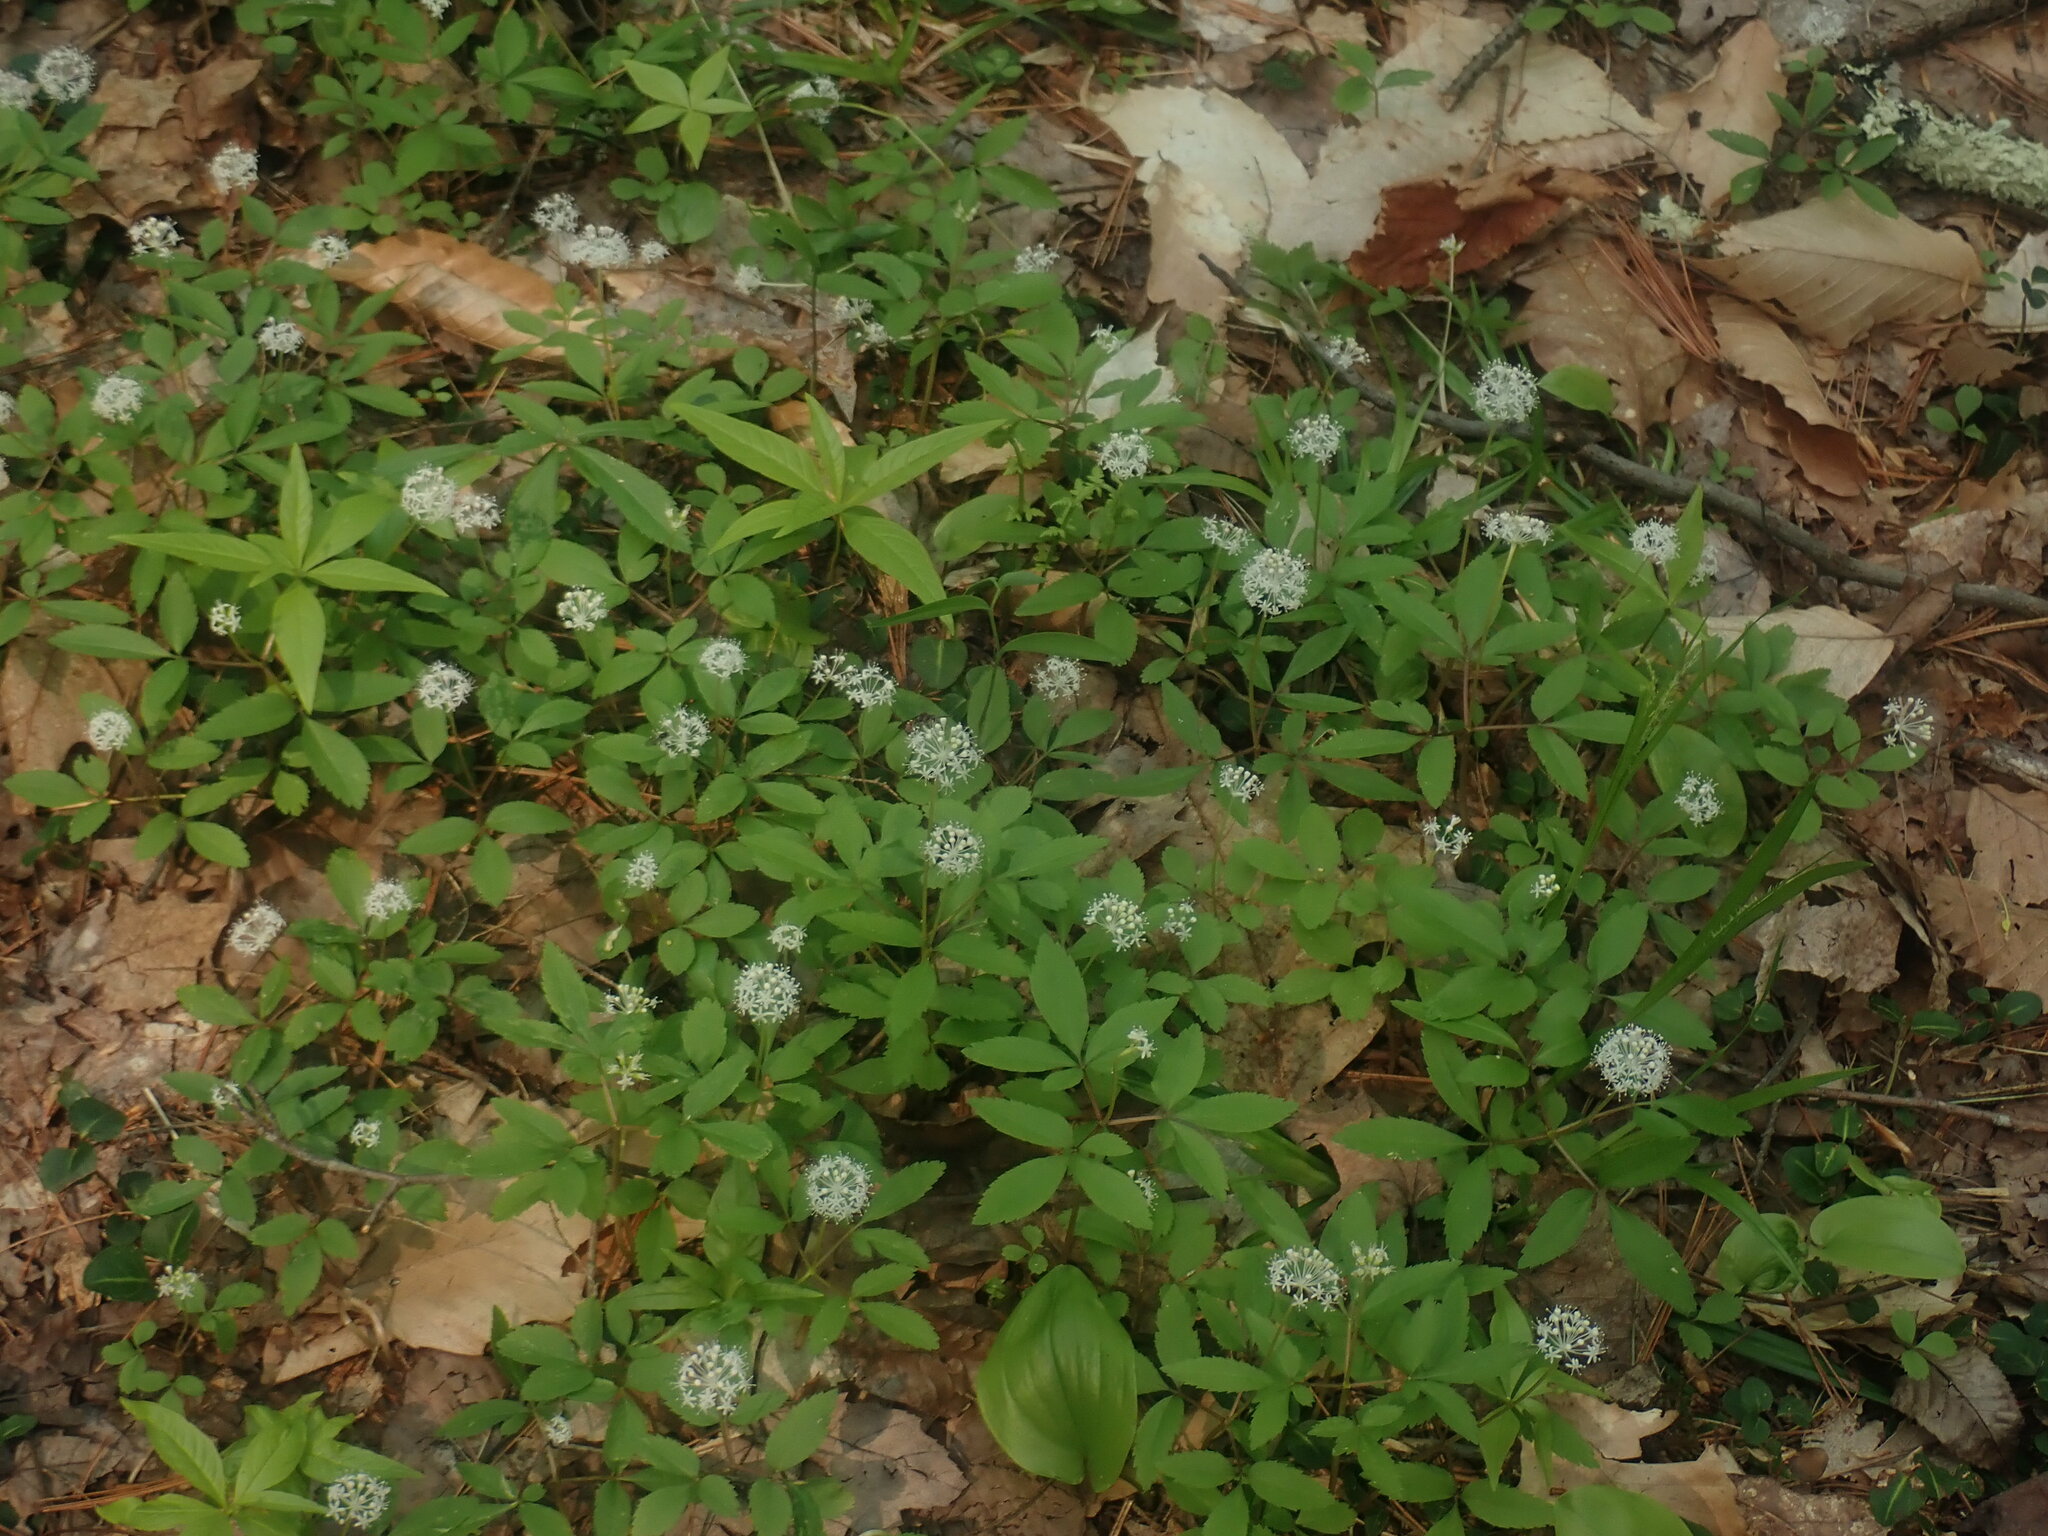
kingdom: Plantae
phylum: Tracheophyta
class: Magnoliopsida
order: Apiales
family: Araliaceae
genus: Panax
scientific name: Panax trifolius
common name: Dwarf ginseng
